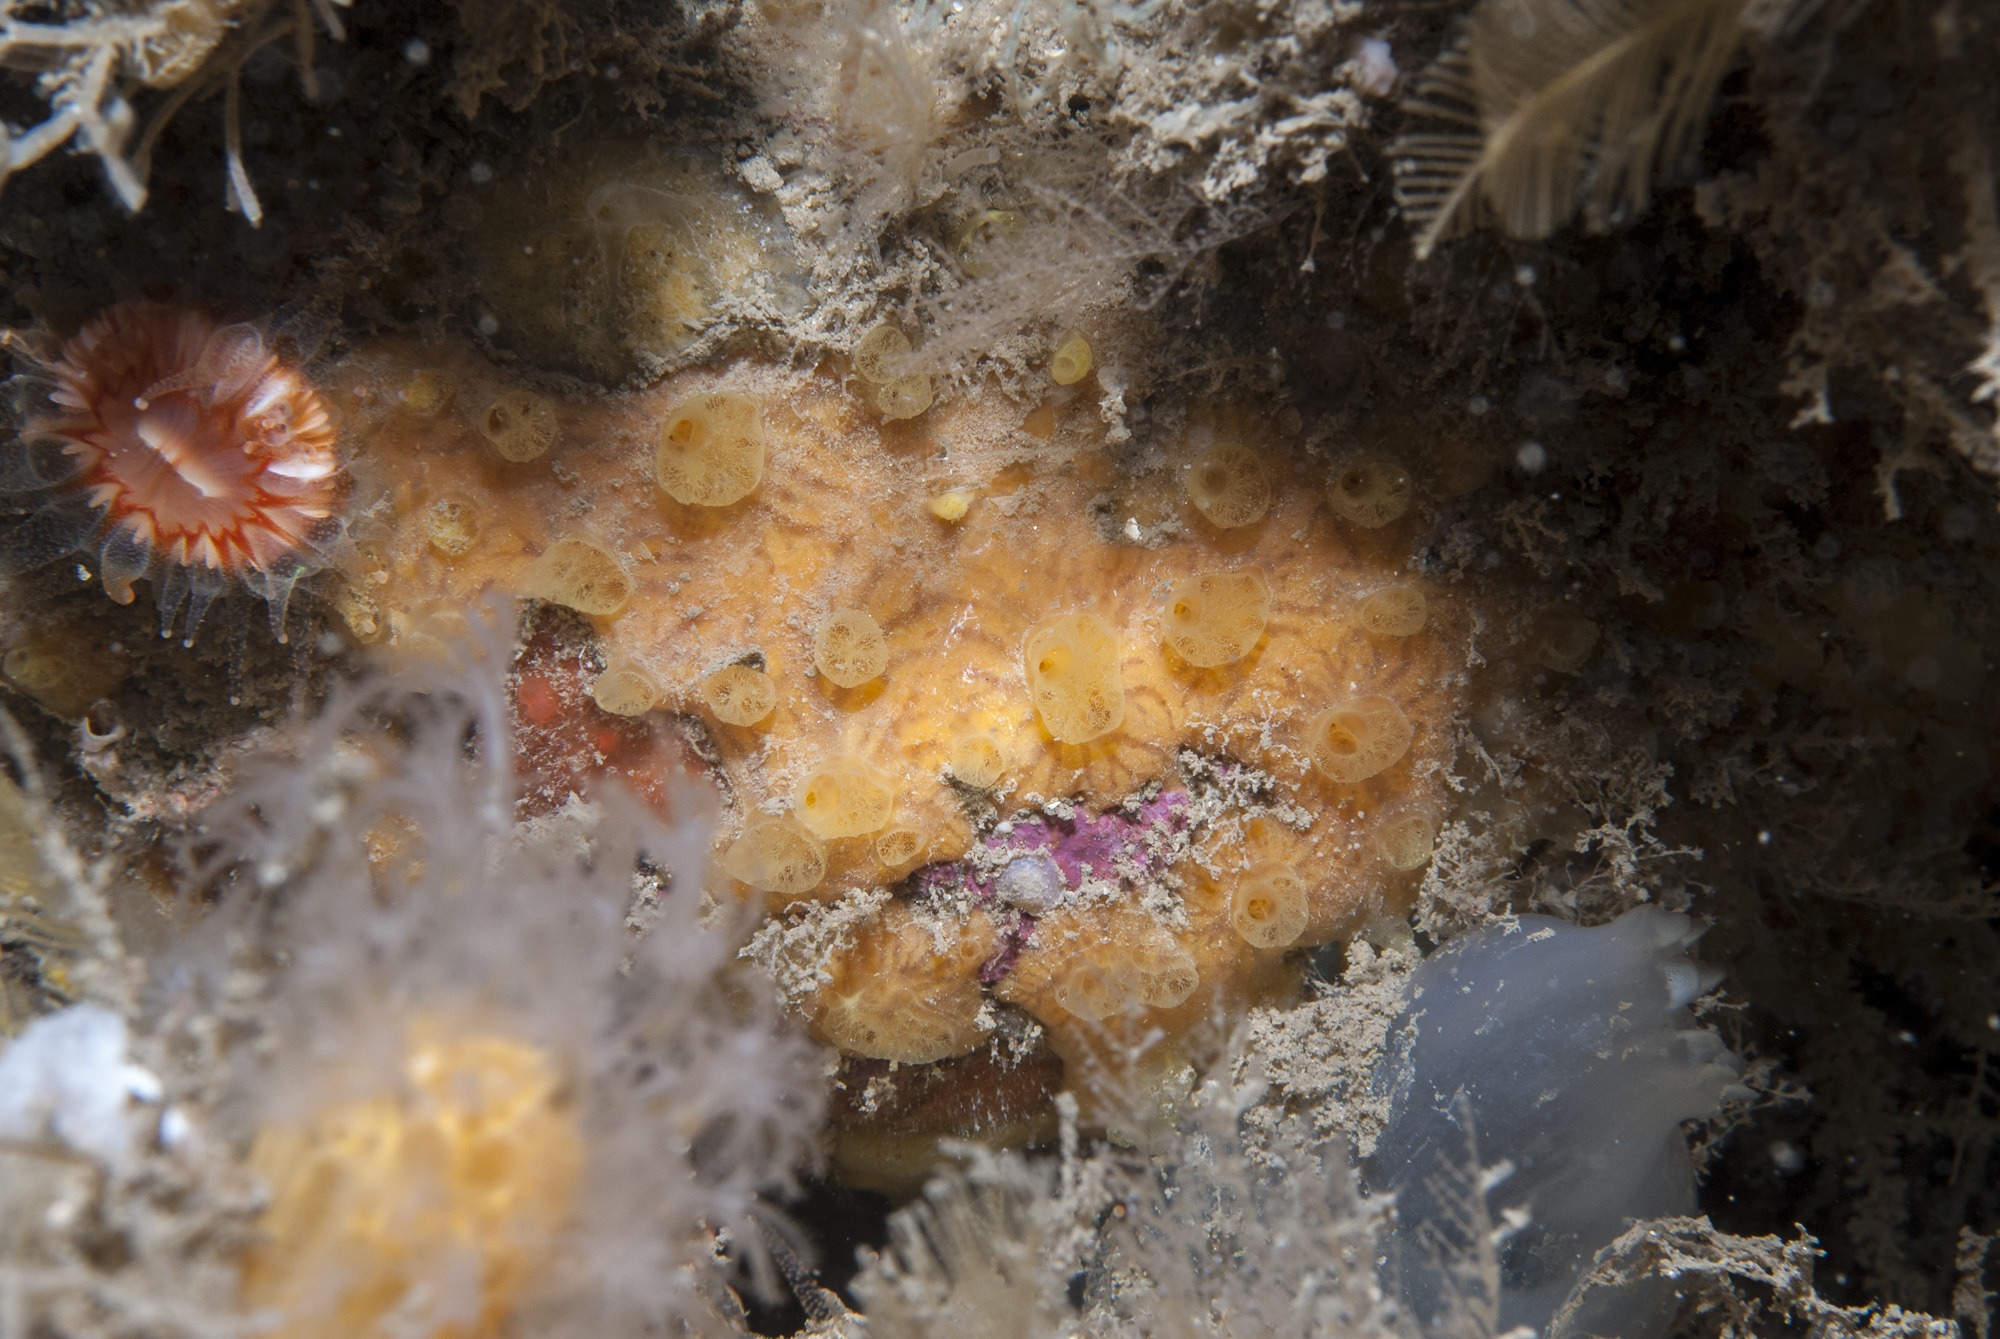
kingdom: Animalia
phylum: Porifera
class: Demospongiae
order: Poecilosclerida
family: Hymedesmiidae
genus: Hymedesmia
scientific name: Hymedesmia rathlinia
